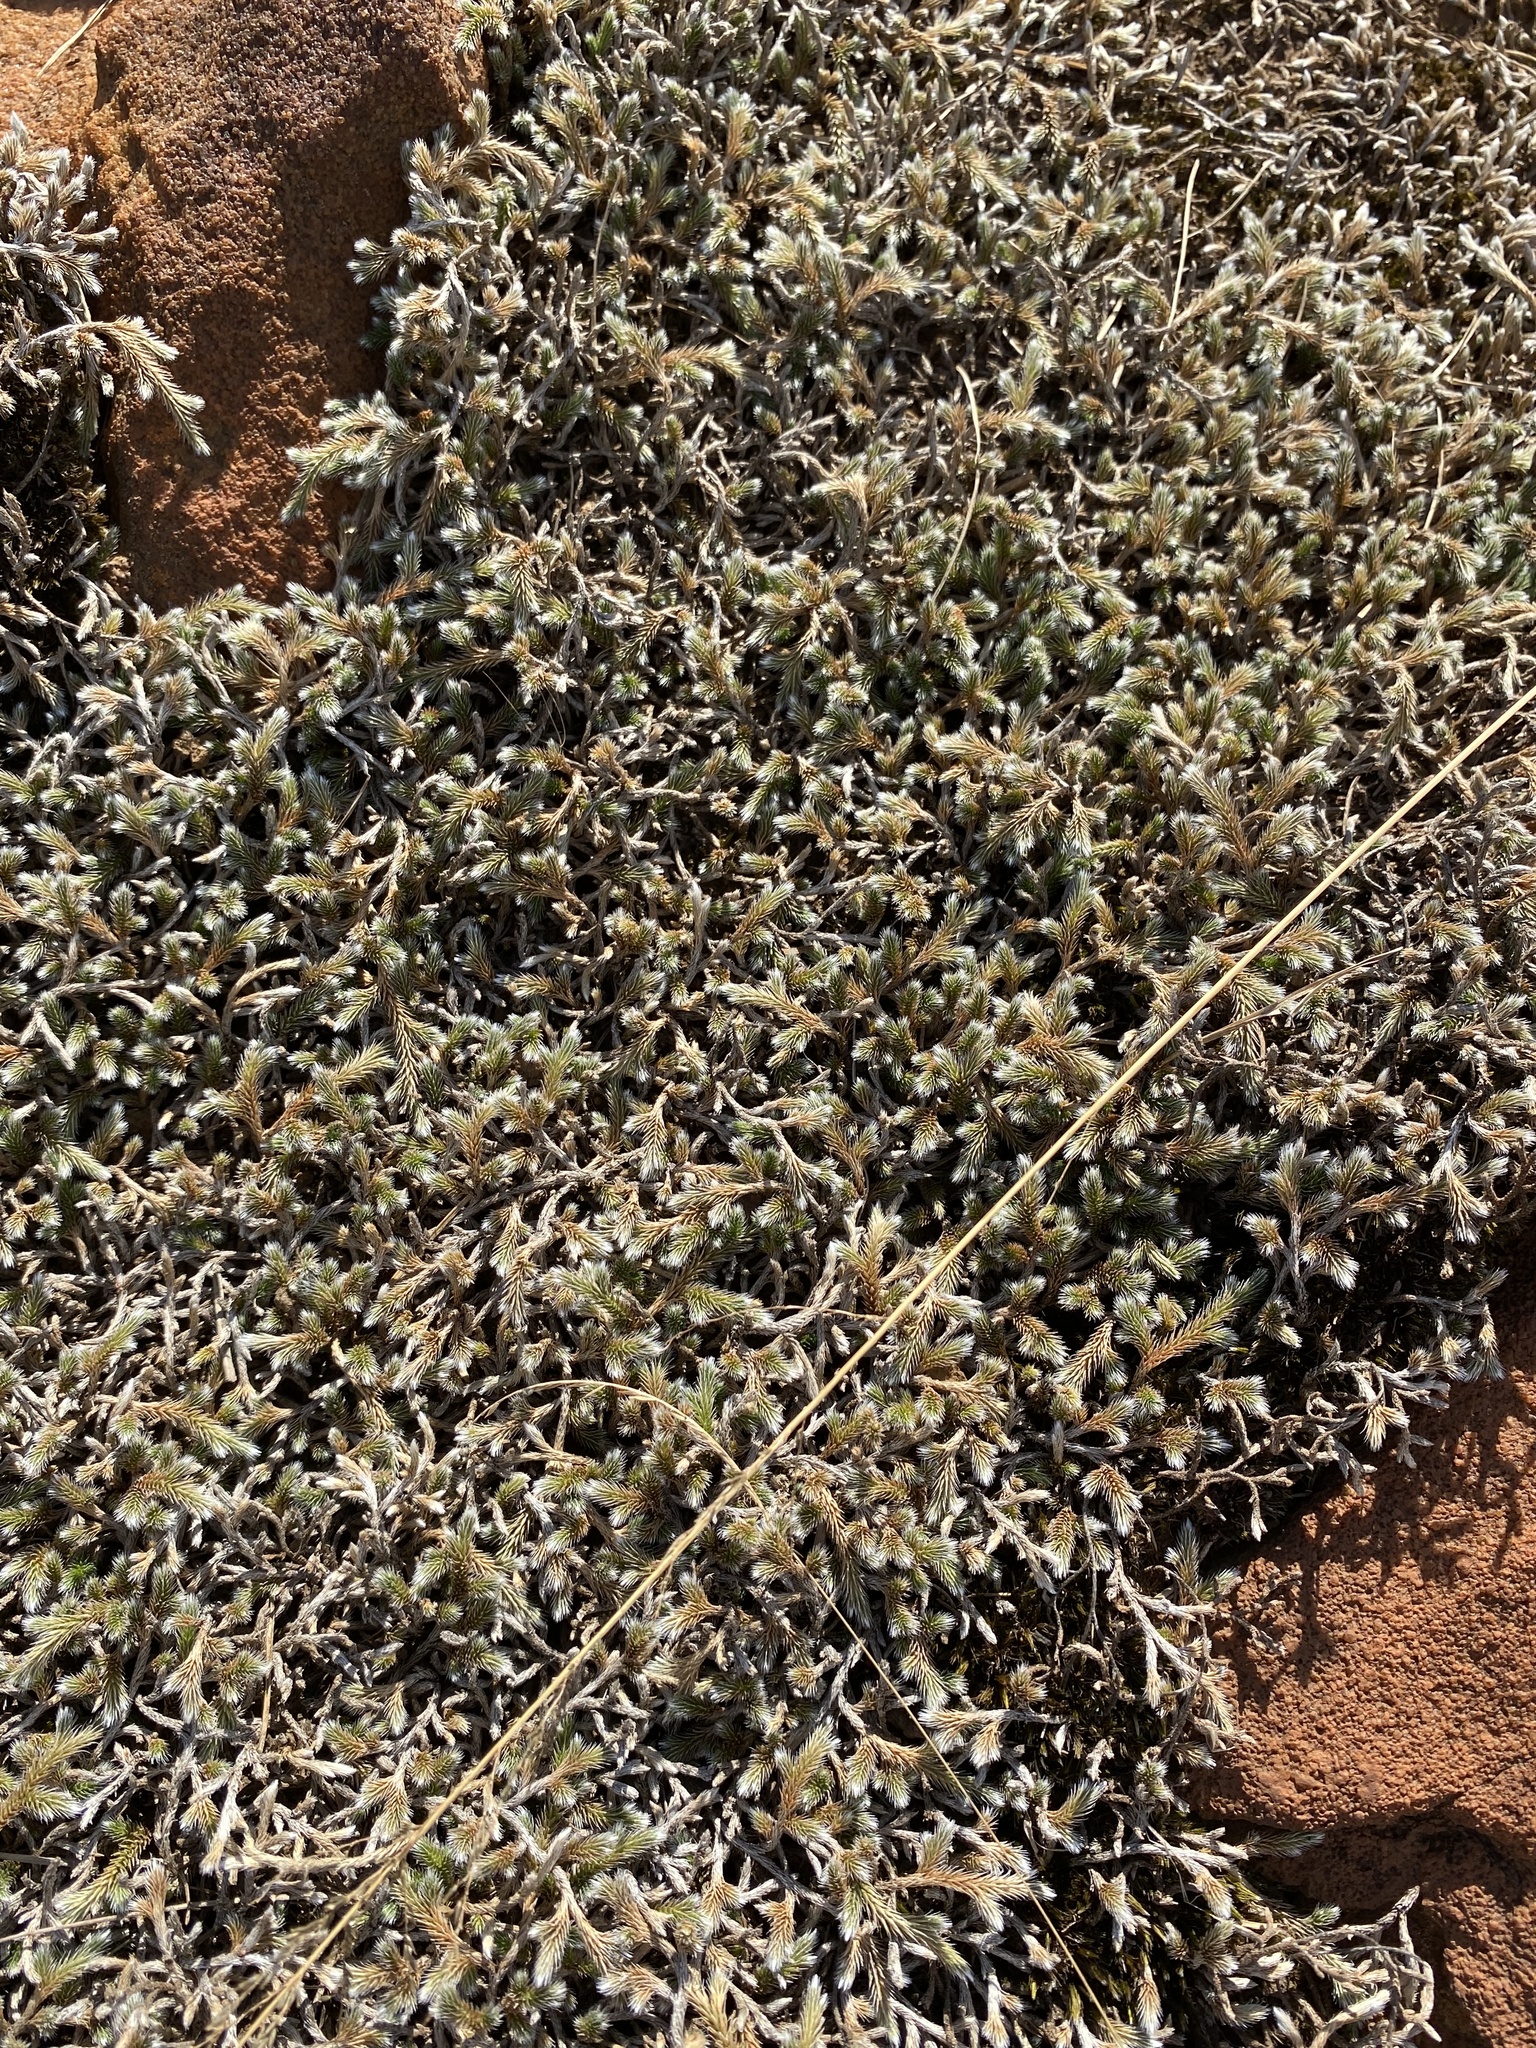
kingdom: Plantae
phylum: Tracheophyta
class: Lycopodiopsida
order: Selaginellales
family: Selaginellaceae
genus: Selaginella
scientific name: Selaginella dregei
